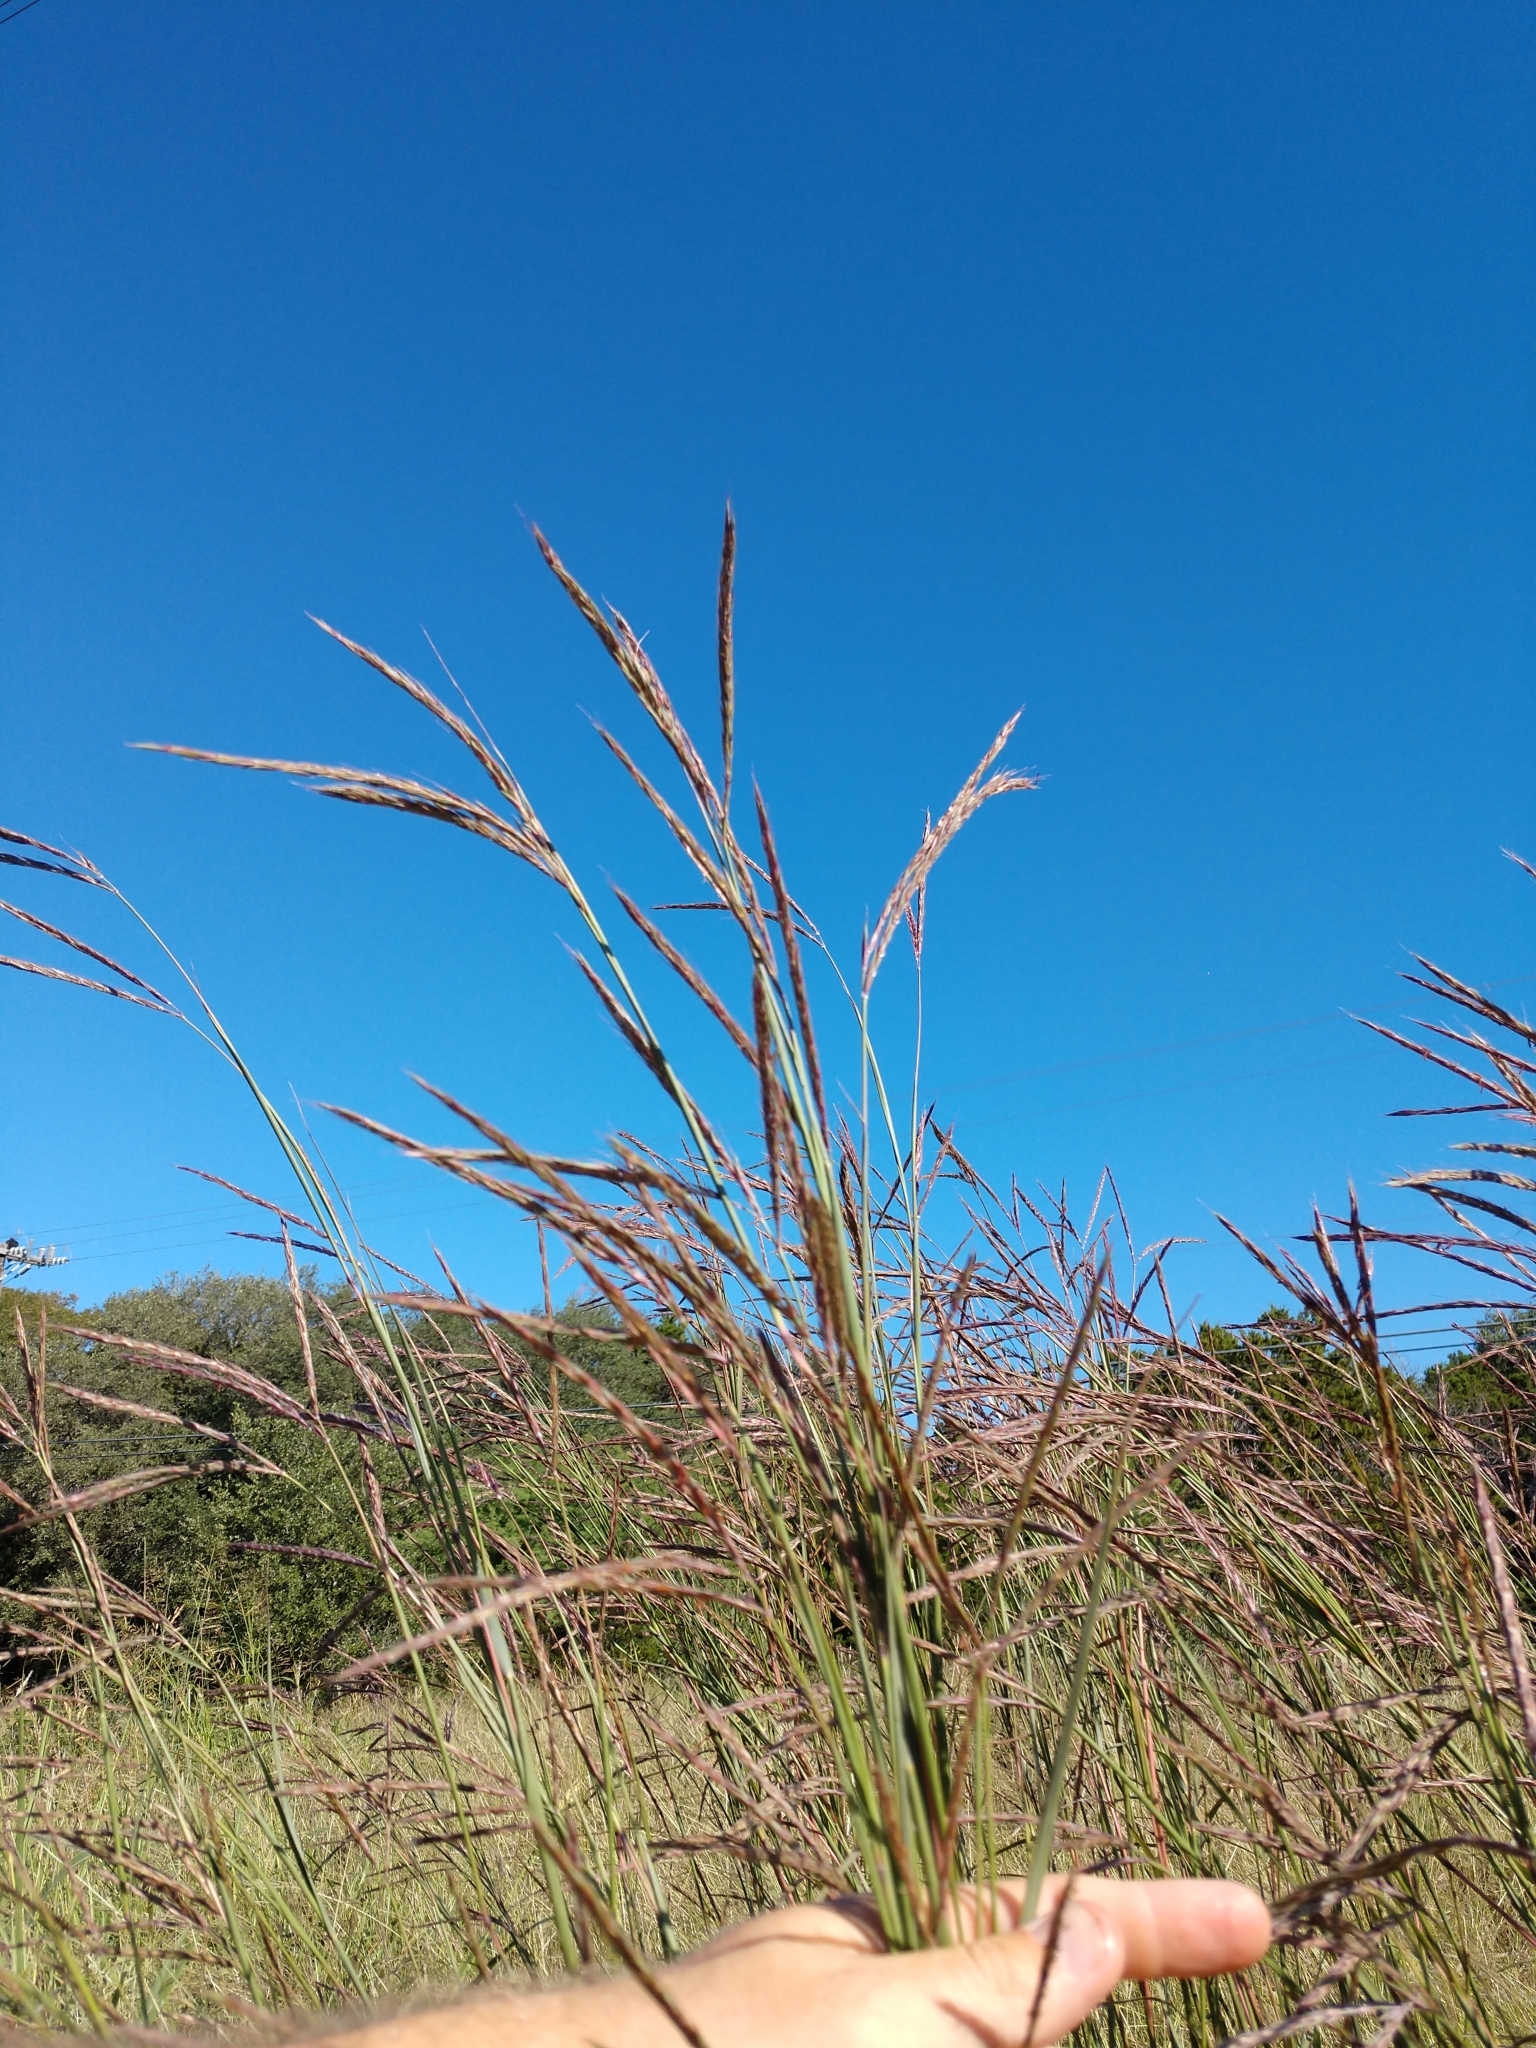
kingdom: Plantae
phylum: Tracheophyta
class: Liliopsida
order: Poales
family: Poaceae
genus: Andropogon
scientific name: Andropogon gerardi
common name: Big bluestem
